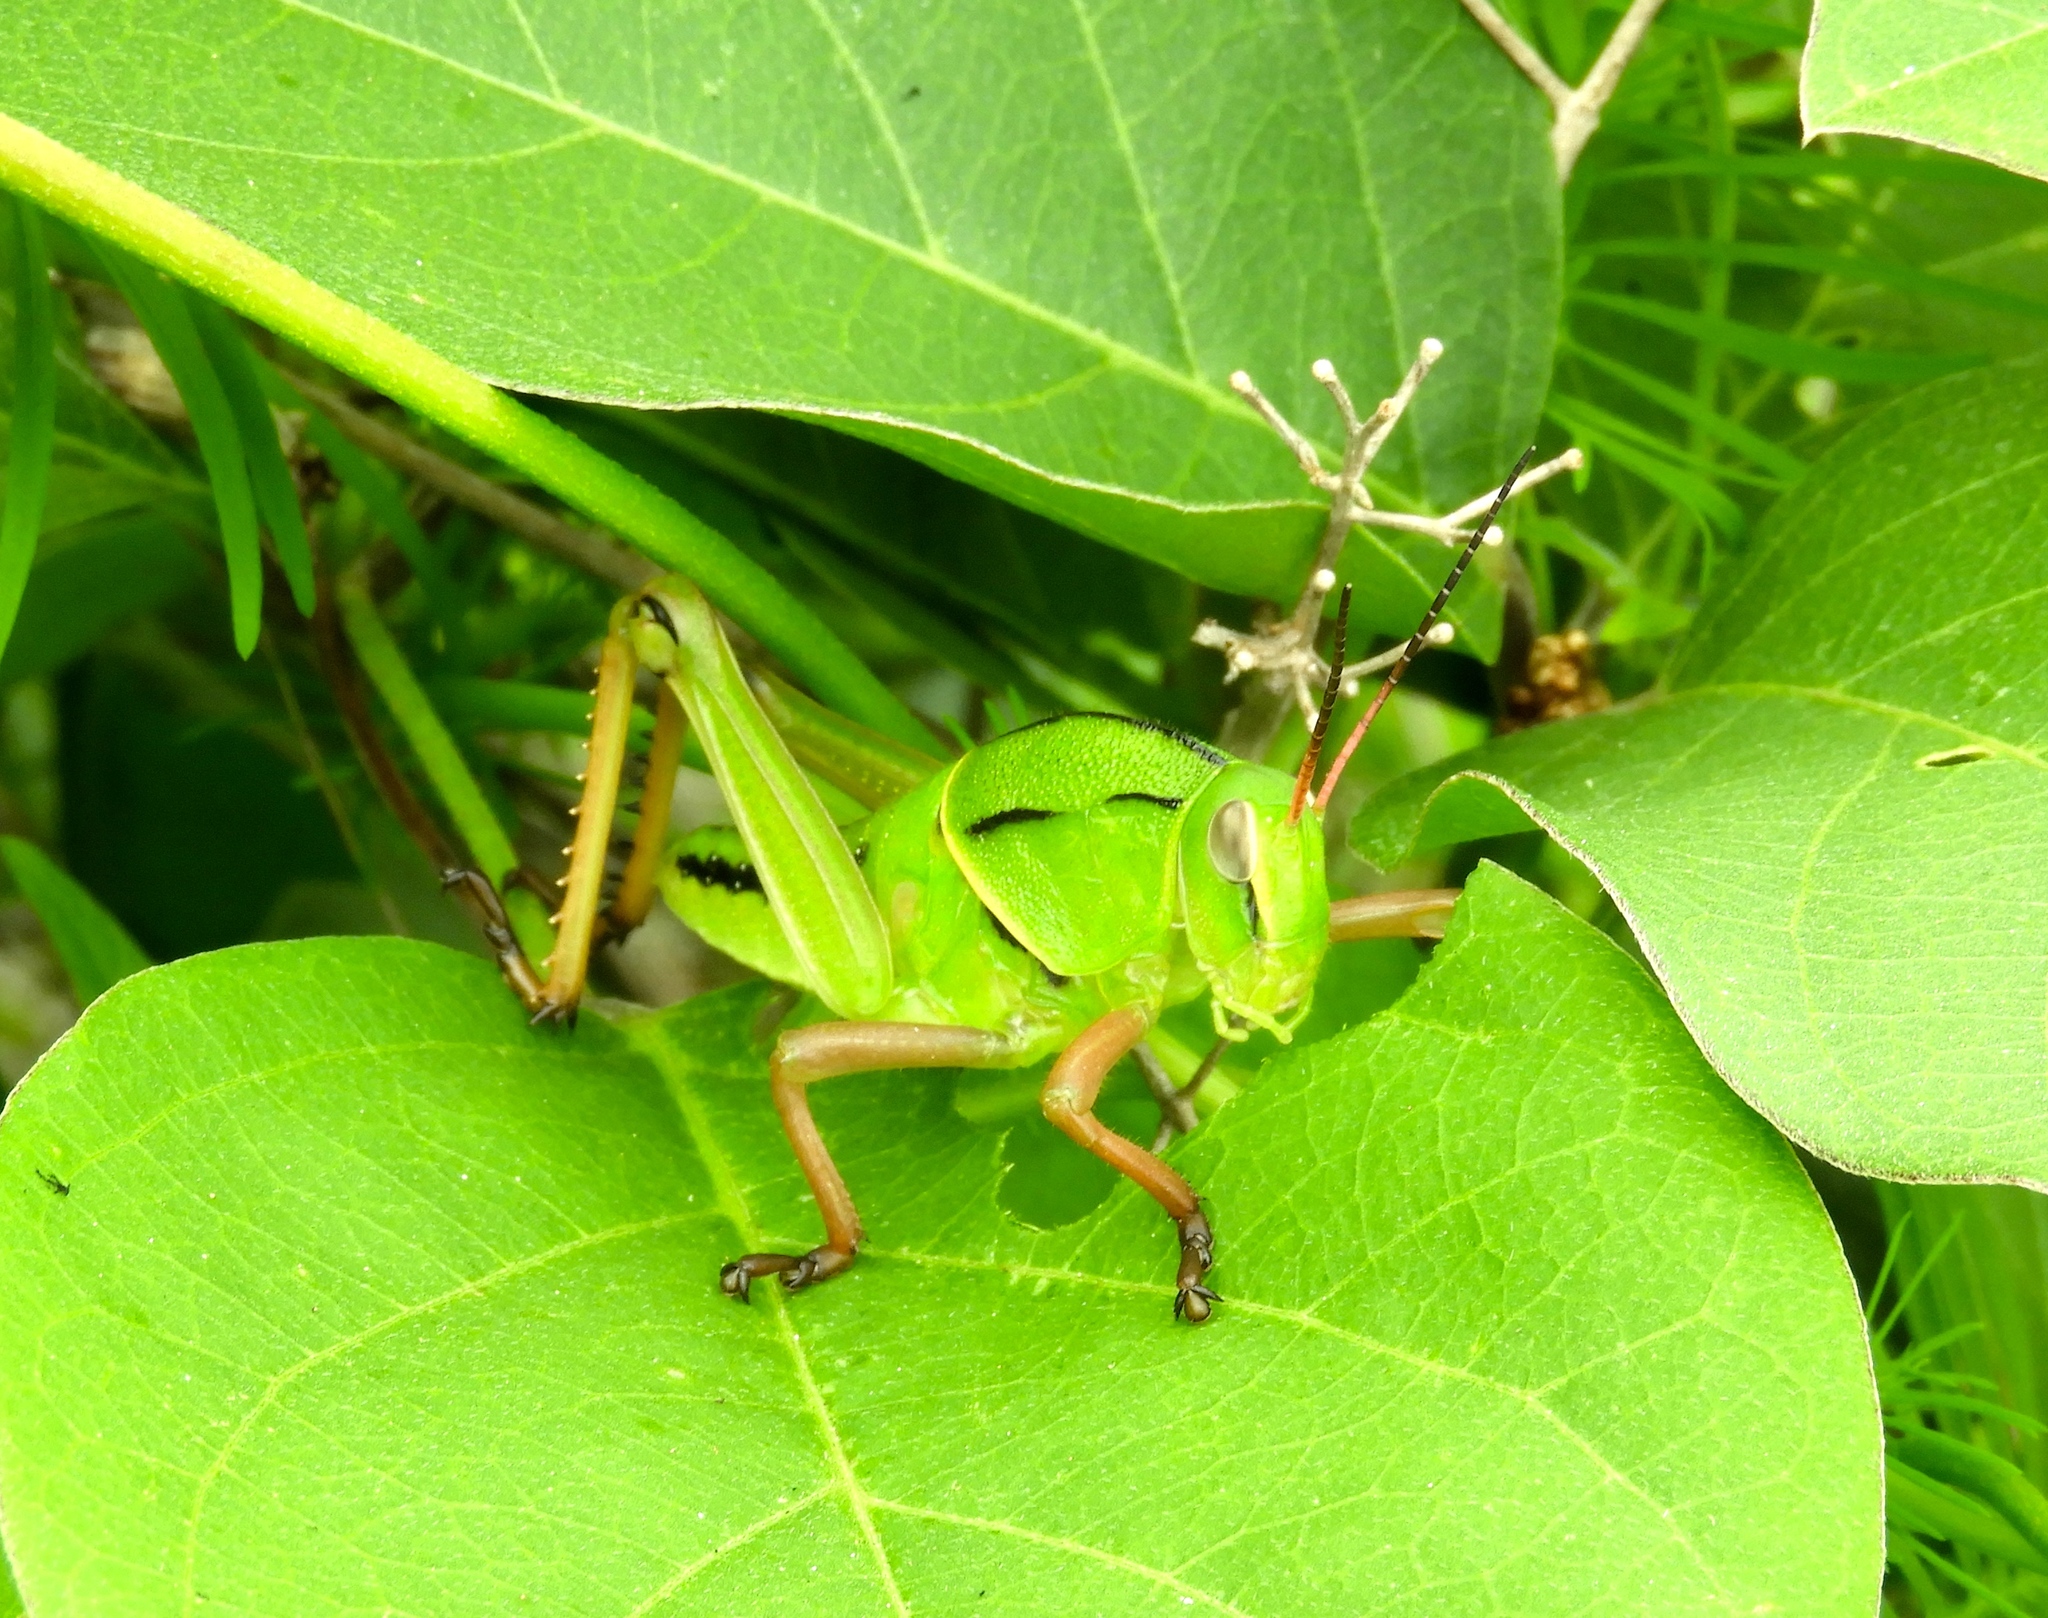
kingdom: Animalia
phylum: Arthropoda
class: Insecta
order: Orthoptera
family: Romaleidae
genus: Brachystola
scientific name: Brachystola
